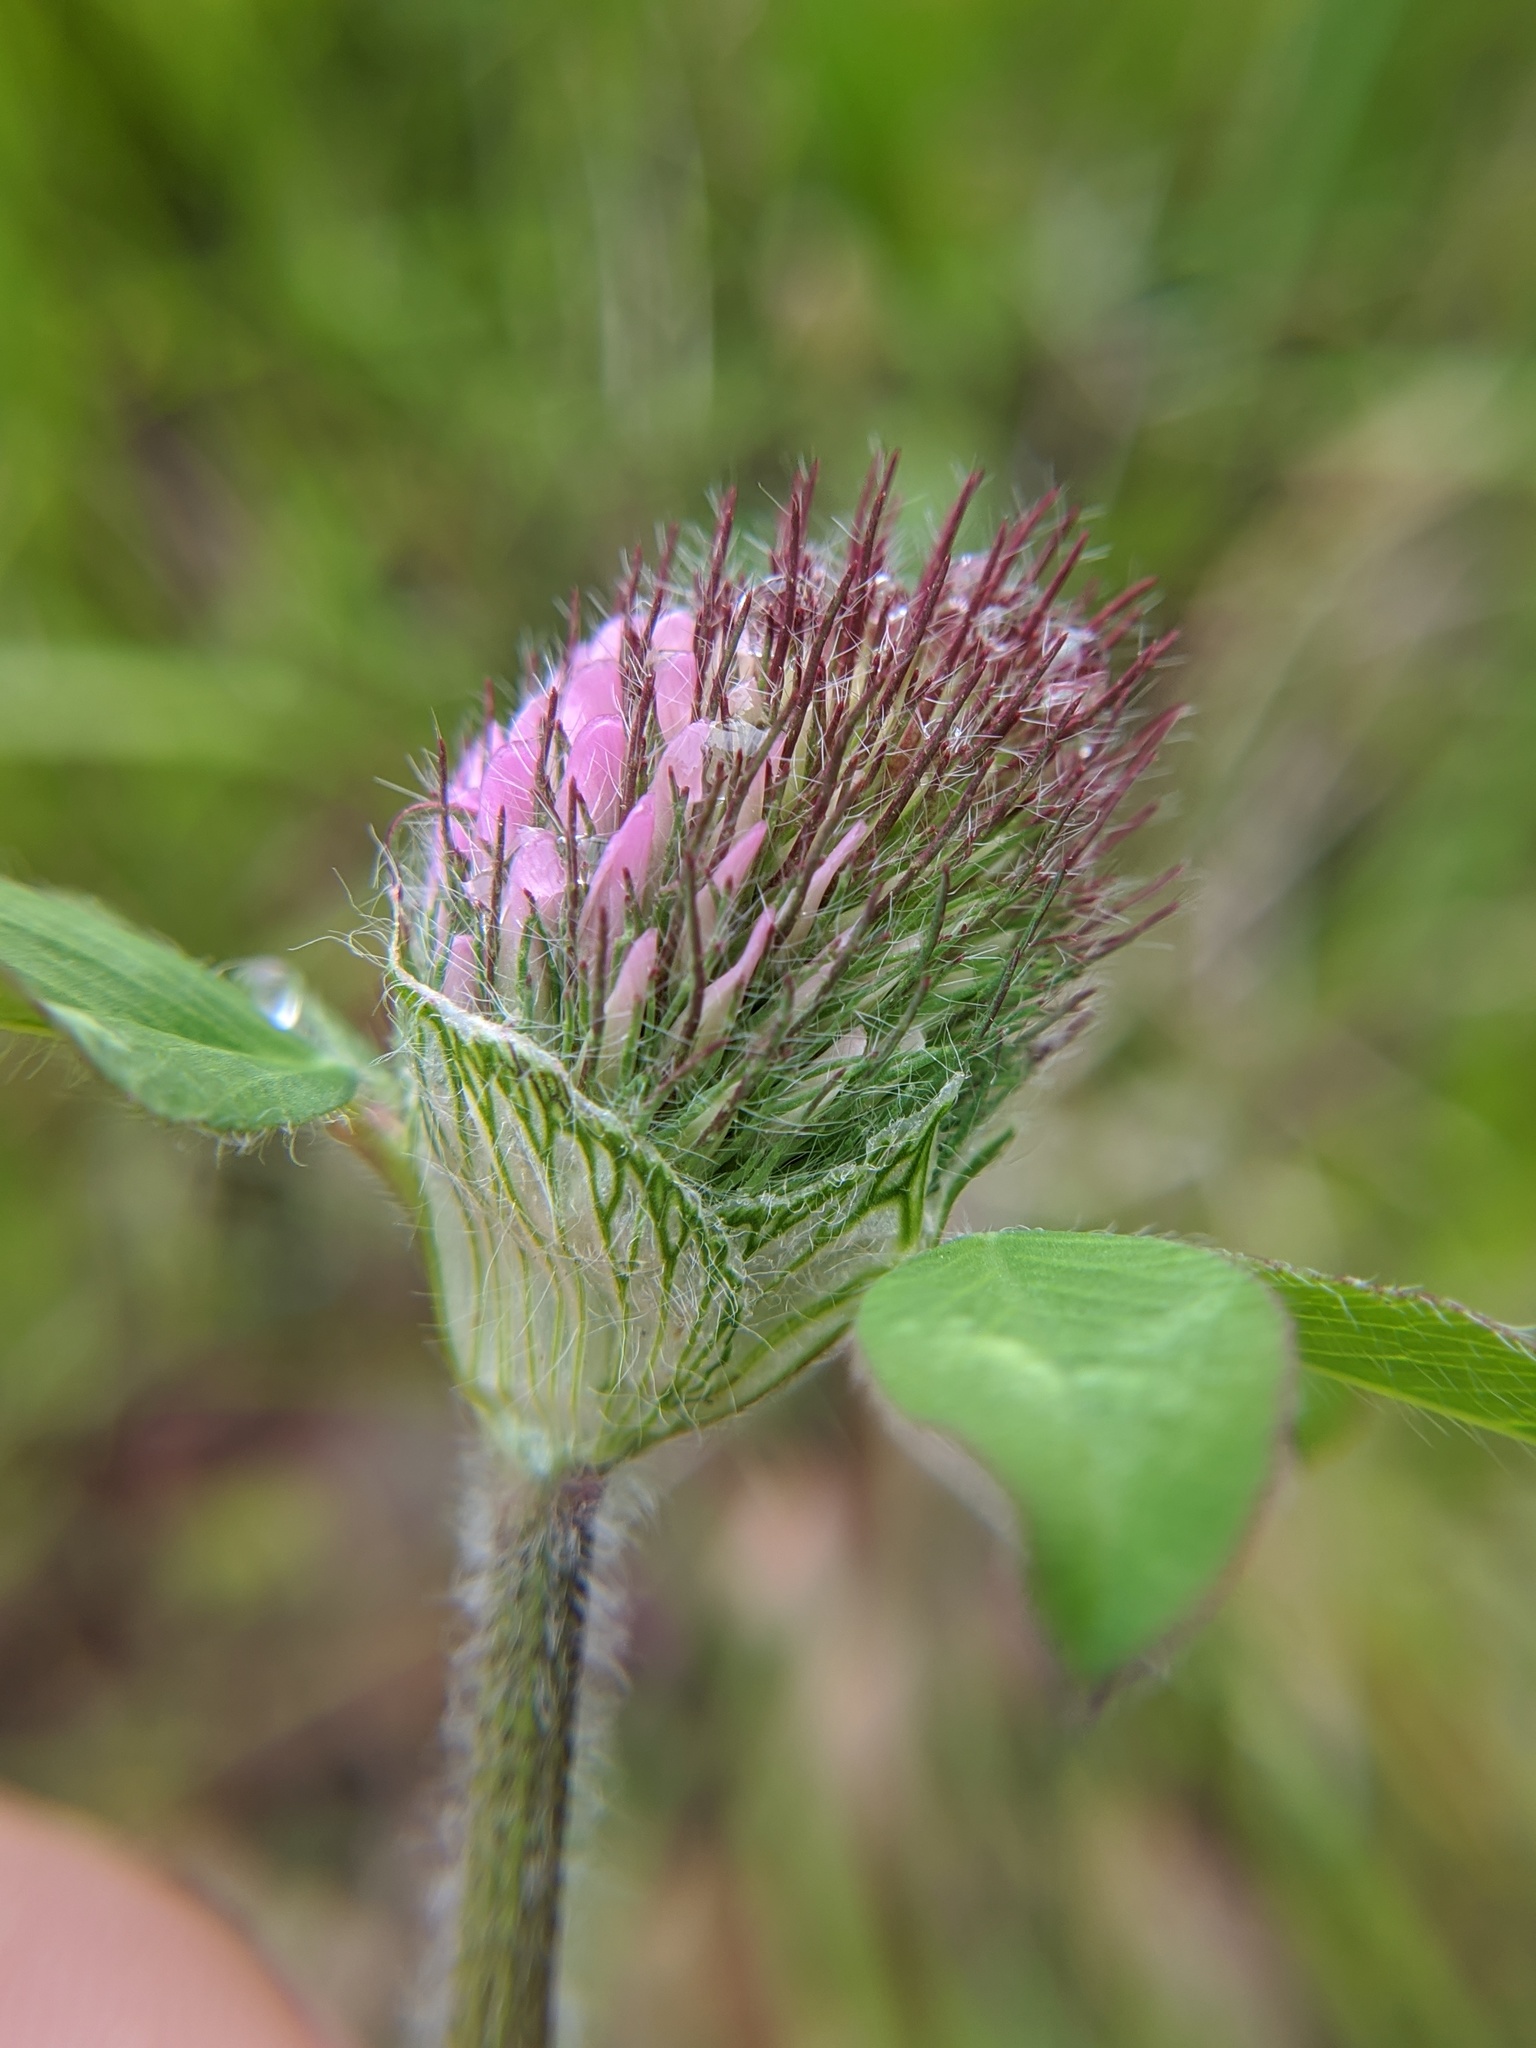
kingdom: Plantae
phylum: Tracheophyta
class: Magnoliopsida
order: Fabales
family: Fabaceae
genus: Trifolium
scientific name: Trifolium pratense
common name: Red clover
